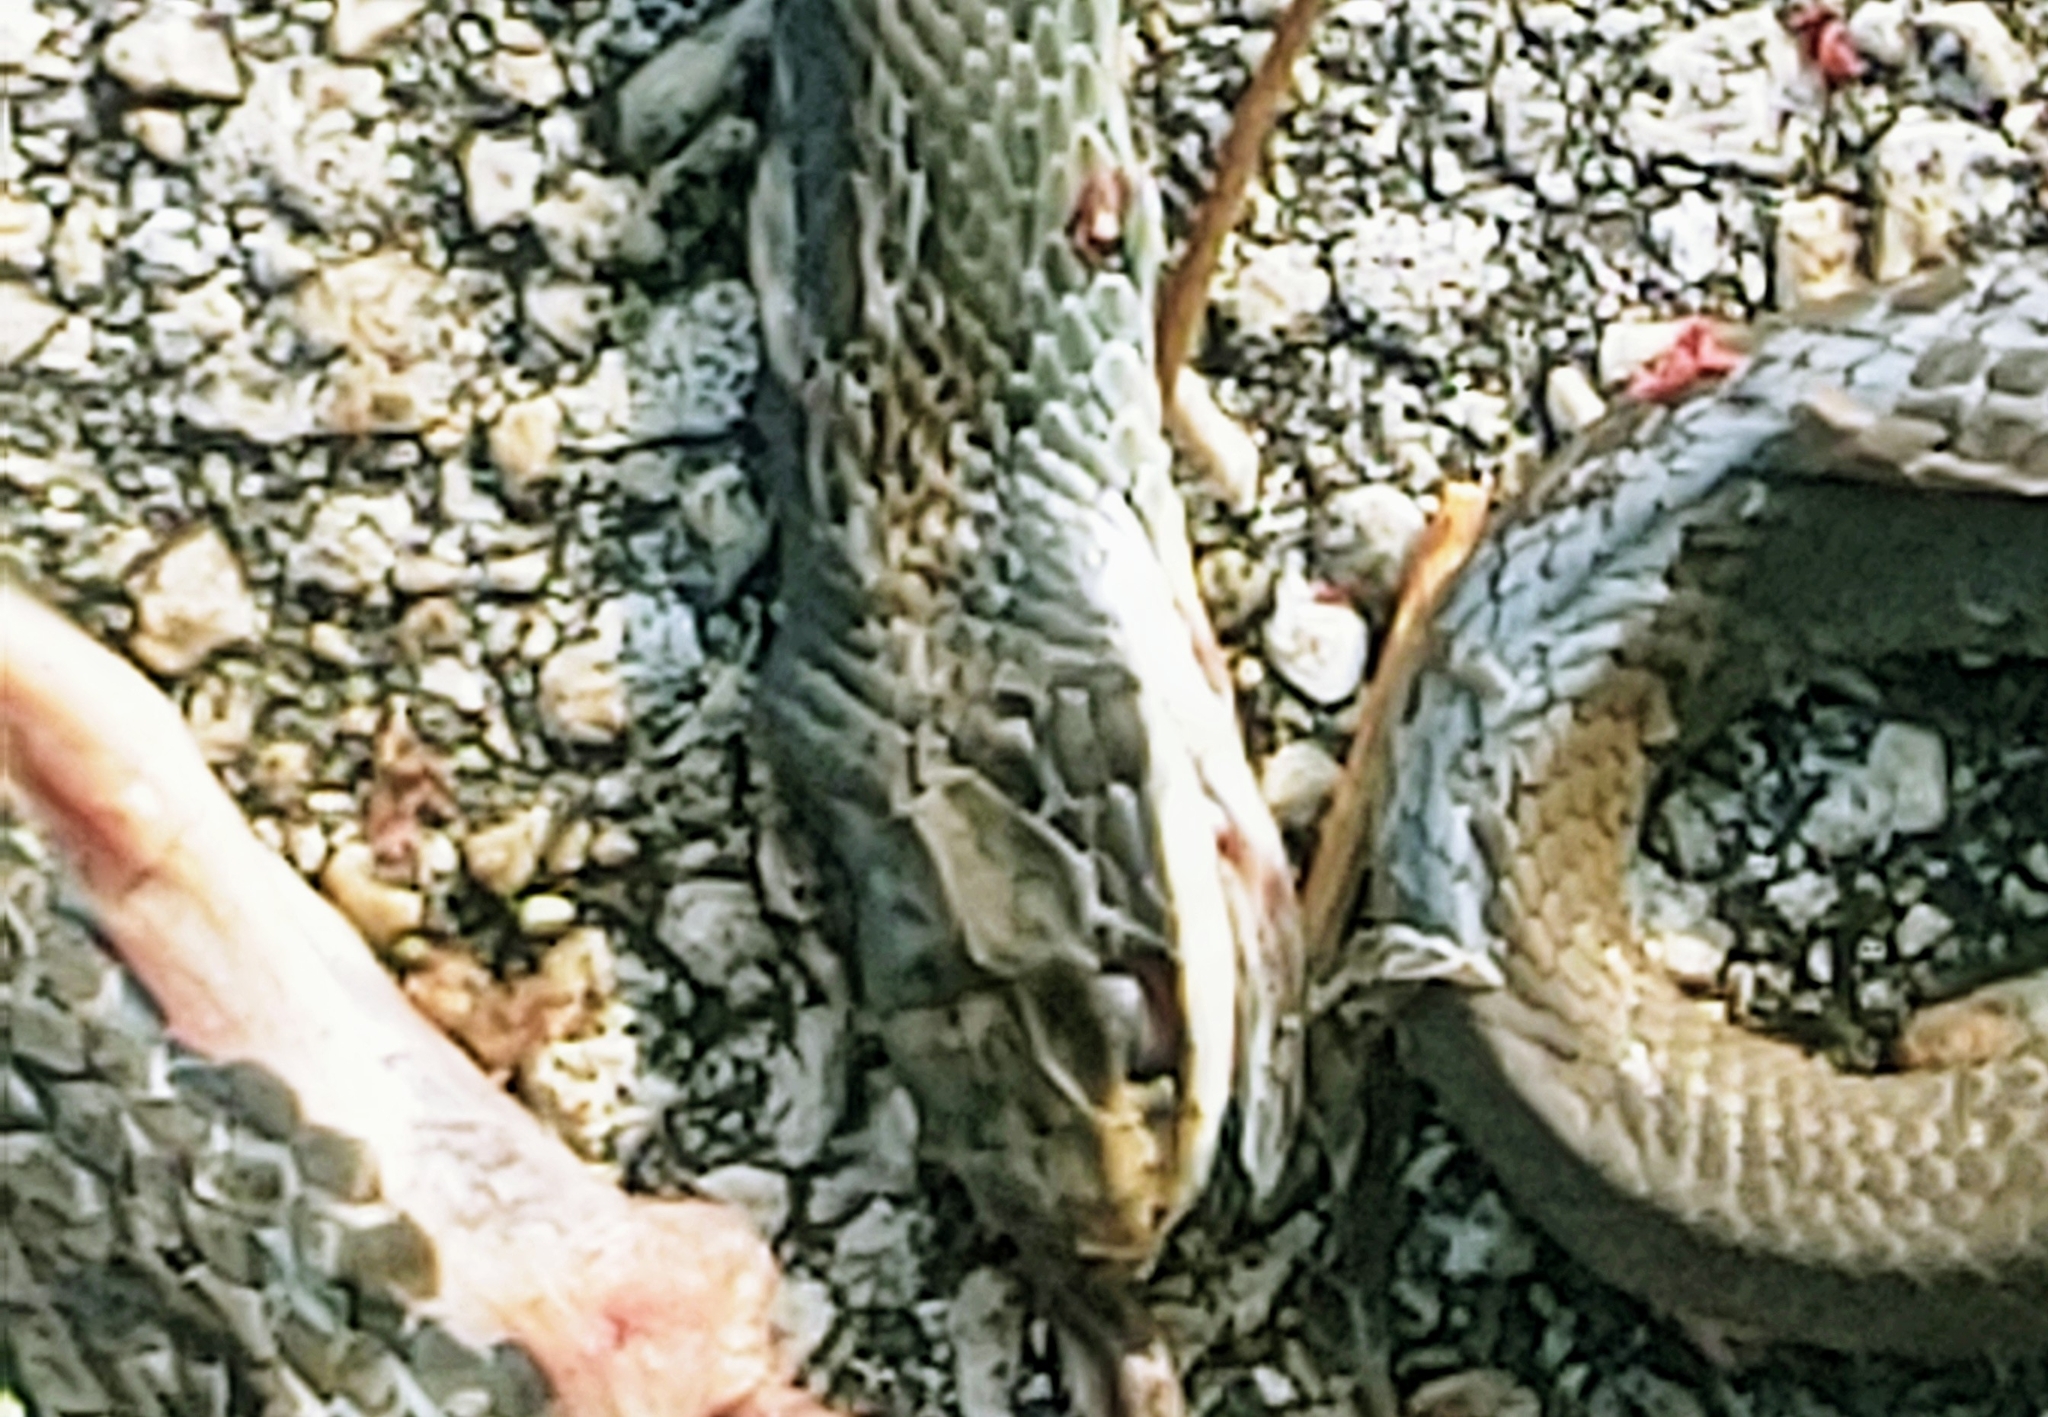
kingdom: Animalia
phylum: Chordata
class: Squamata
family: Colubridae
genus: Coluber
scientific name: Coluber constrictor
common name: Eastern racer
